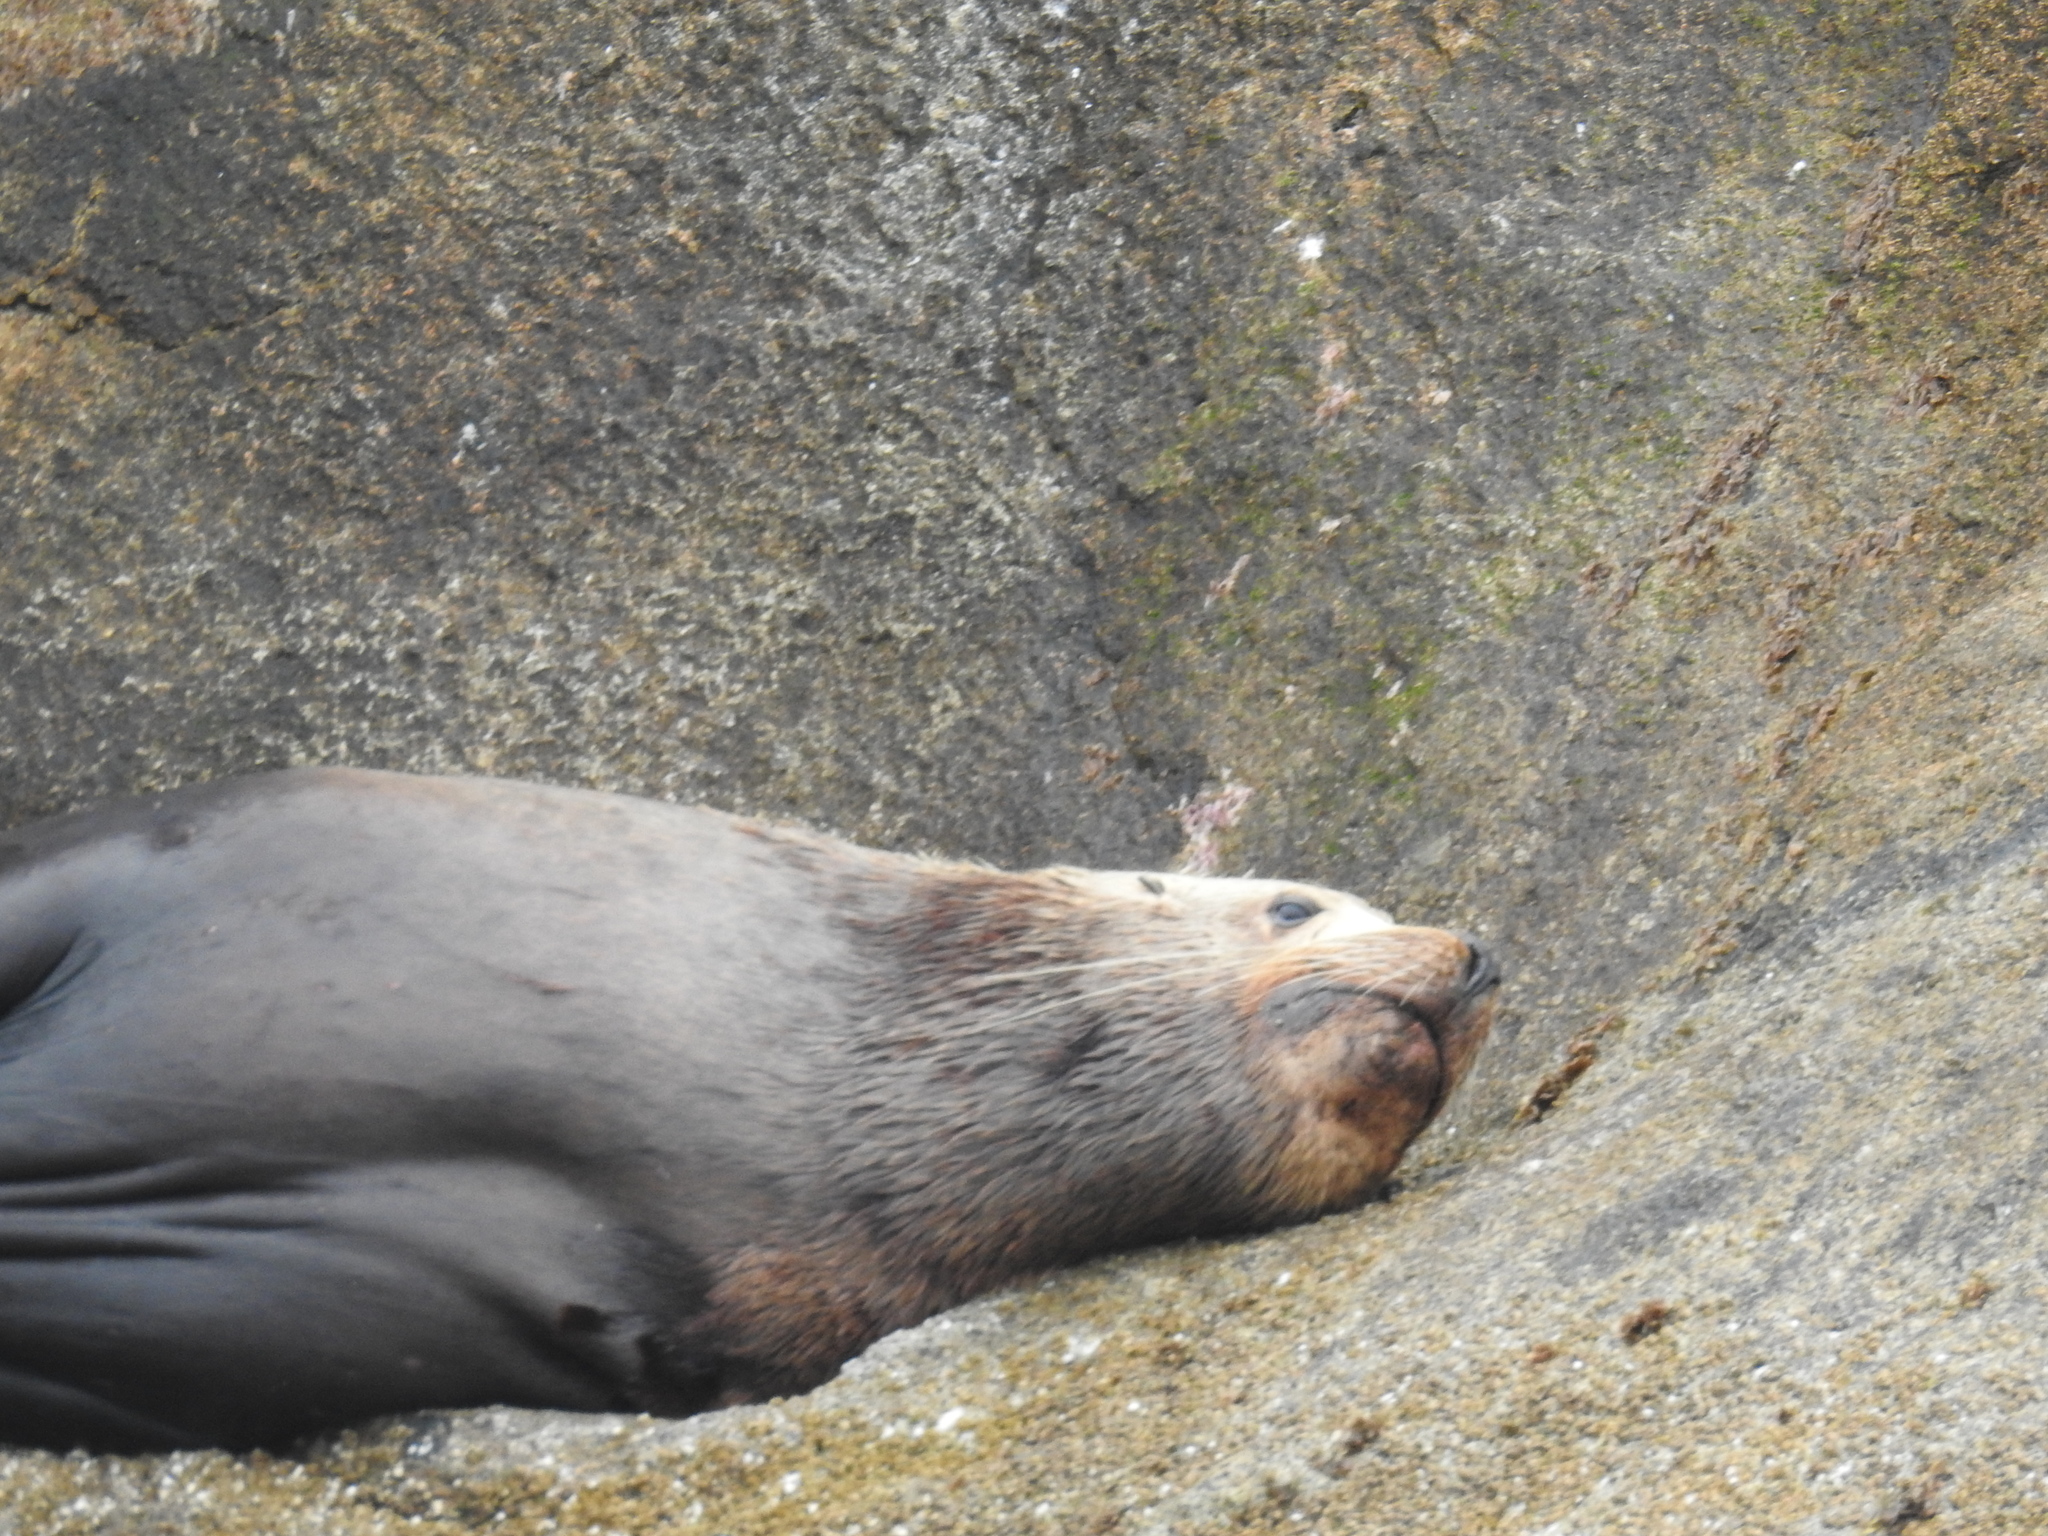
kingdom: Animalia
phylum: Chordata
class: Mammalia
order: Carnivora
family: Otariidae
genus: Eumetopias
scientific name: Eumetopias jubatus
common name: Steller sea lion
